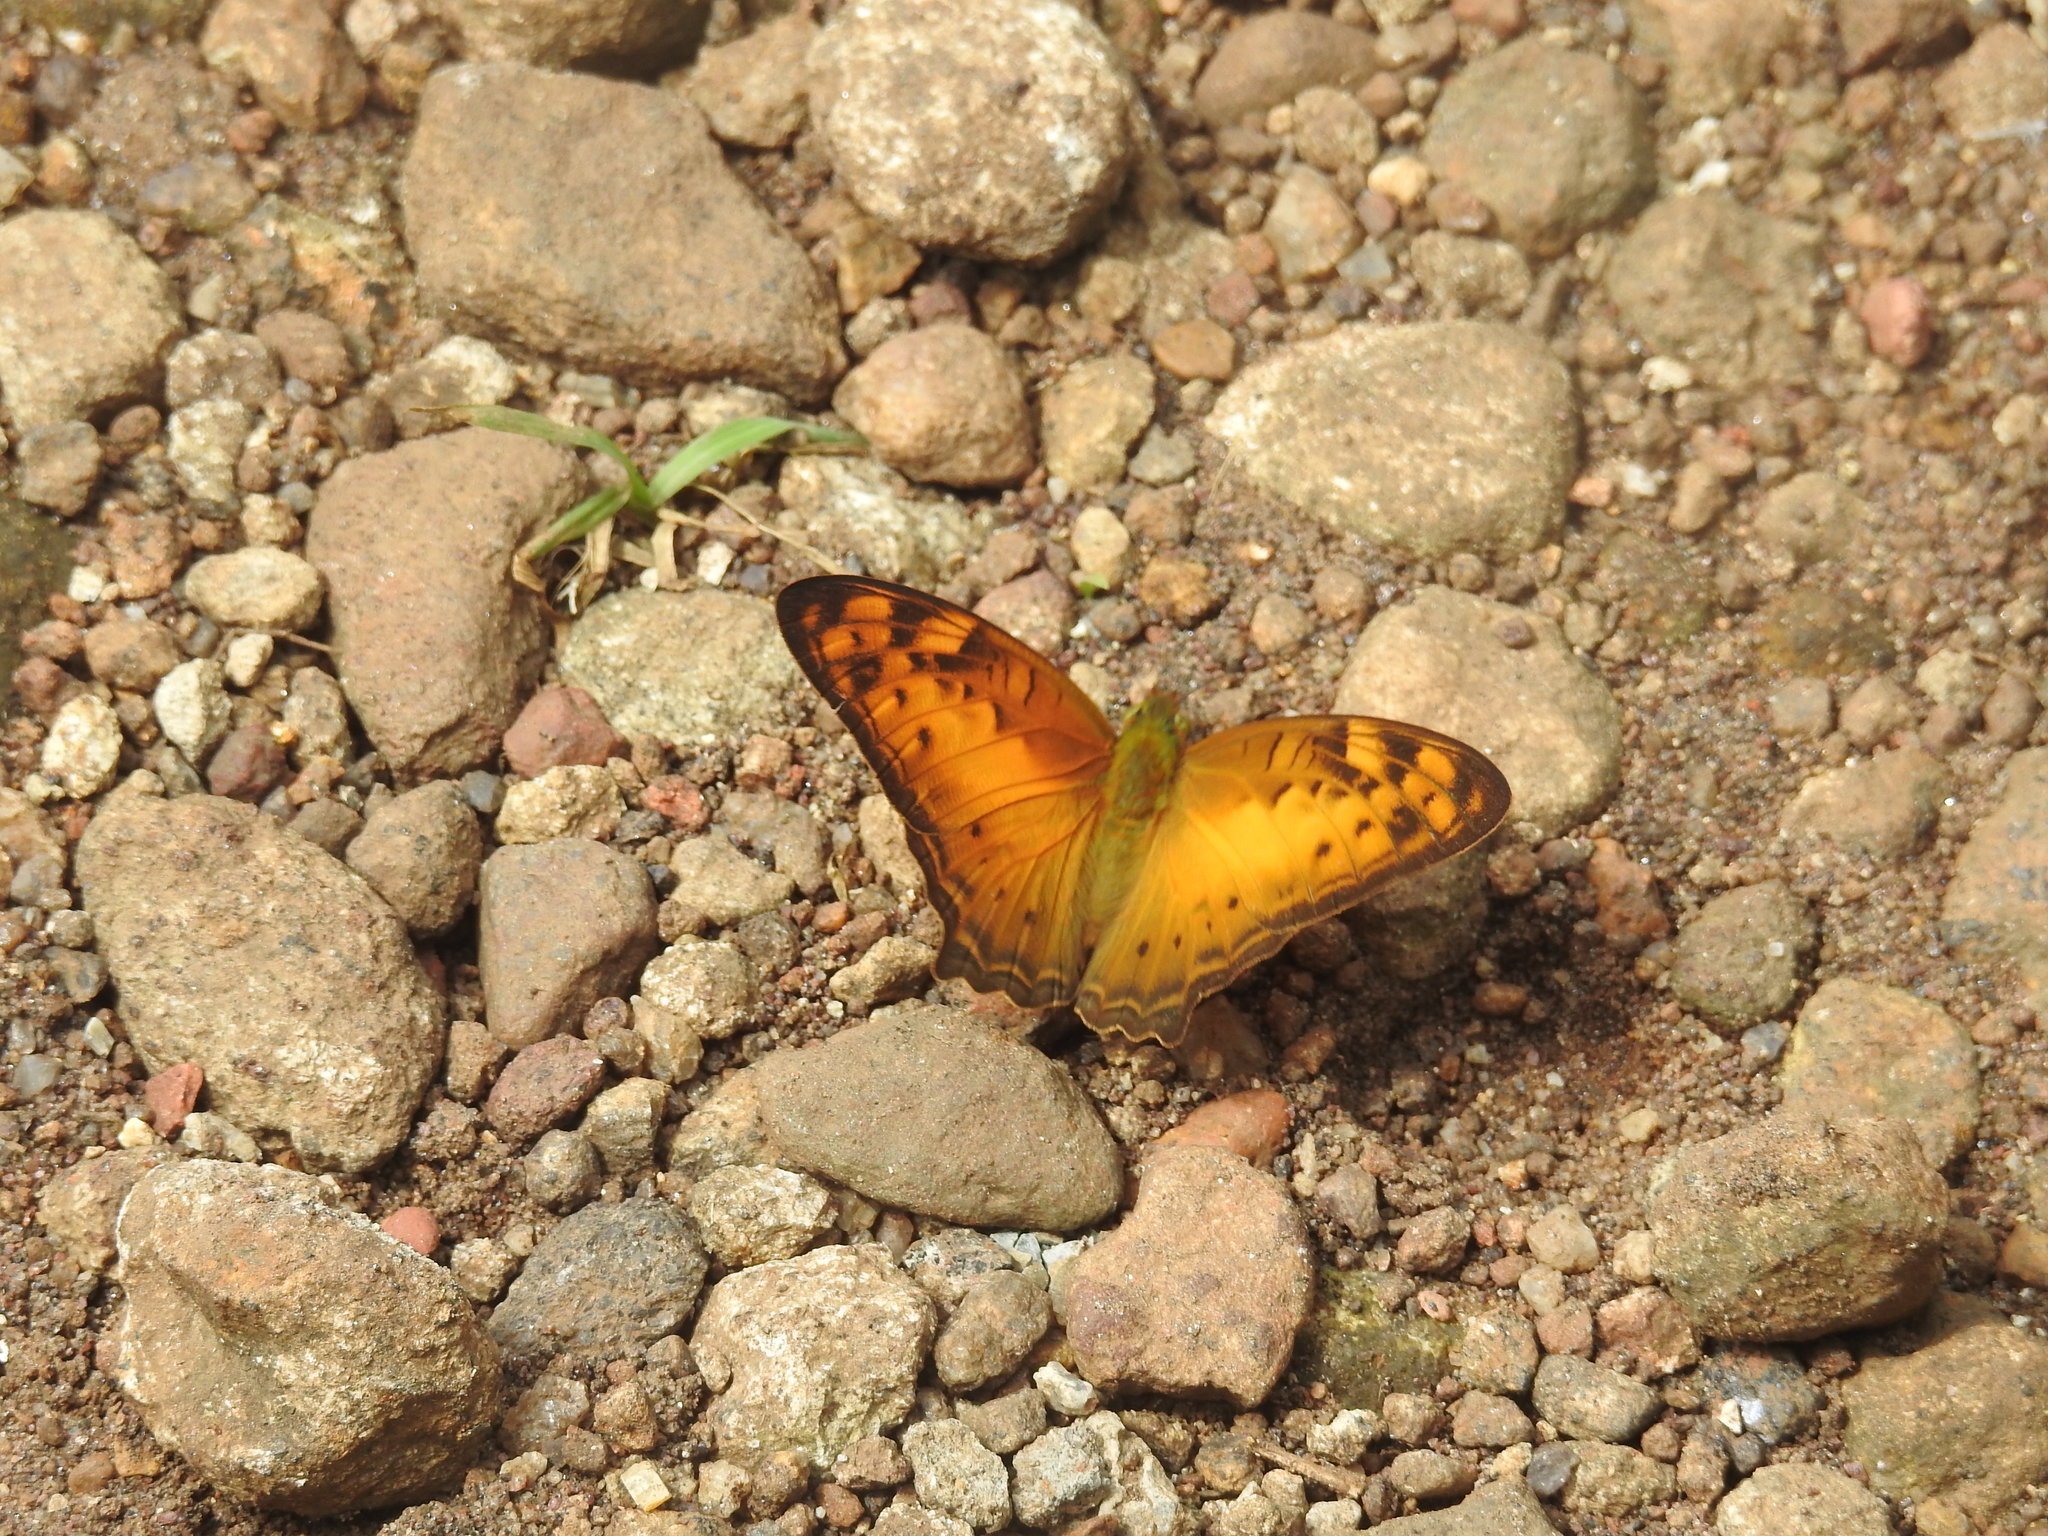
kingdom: Animalia
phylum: Arthropoda
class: Insecta
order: Lepidoptera
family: Nymphalidae
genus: Vagrans
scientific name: Vagrans sinha
